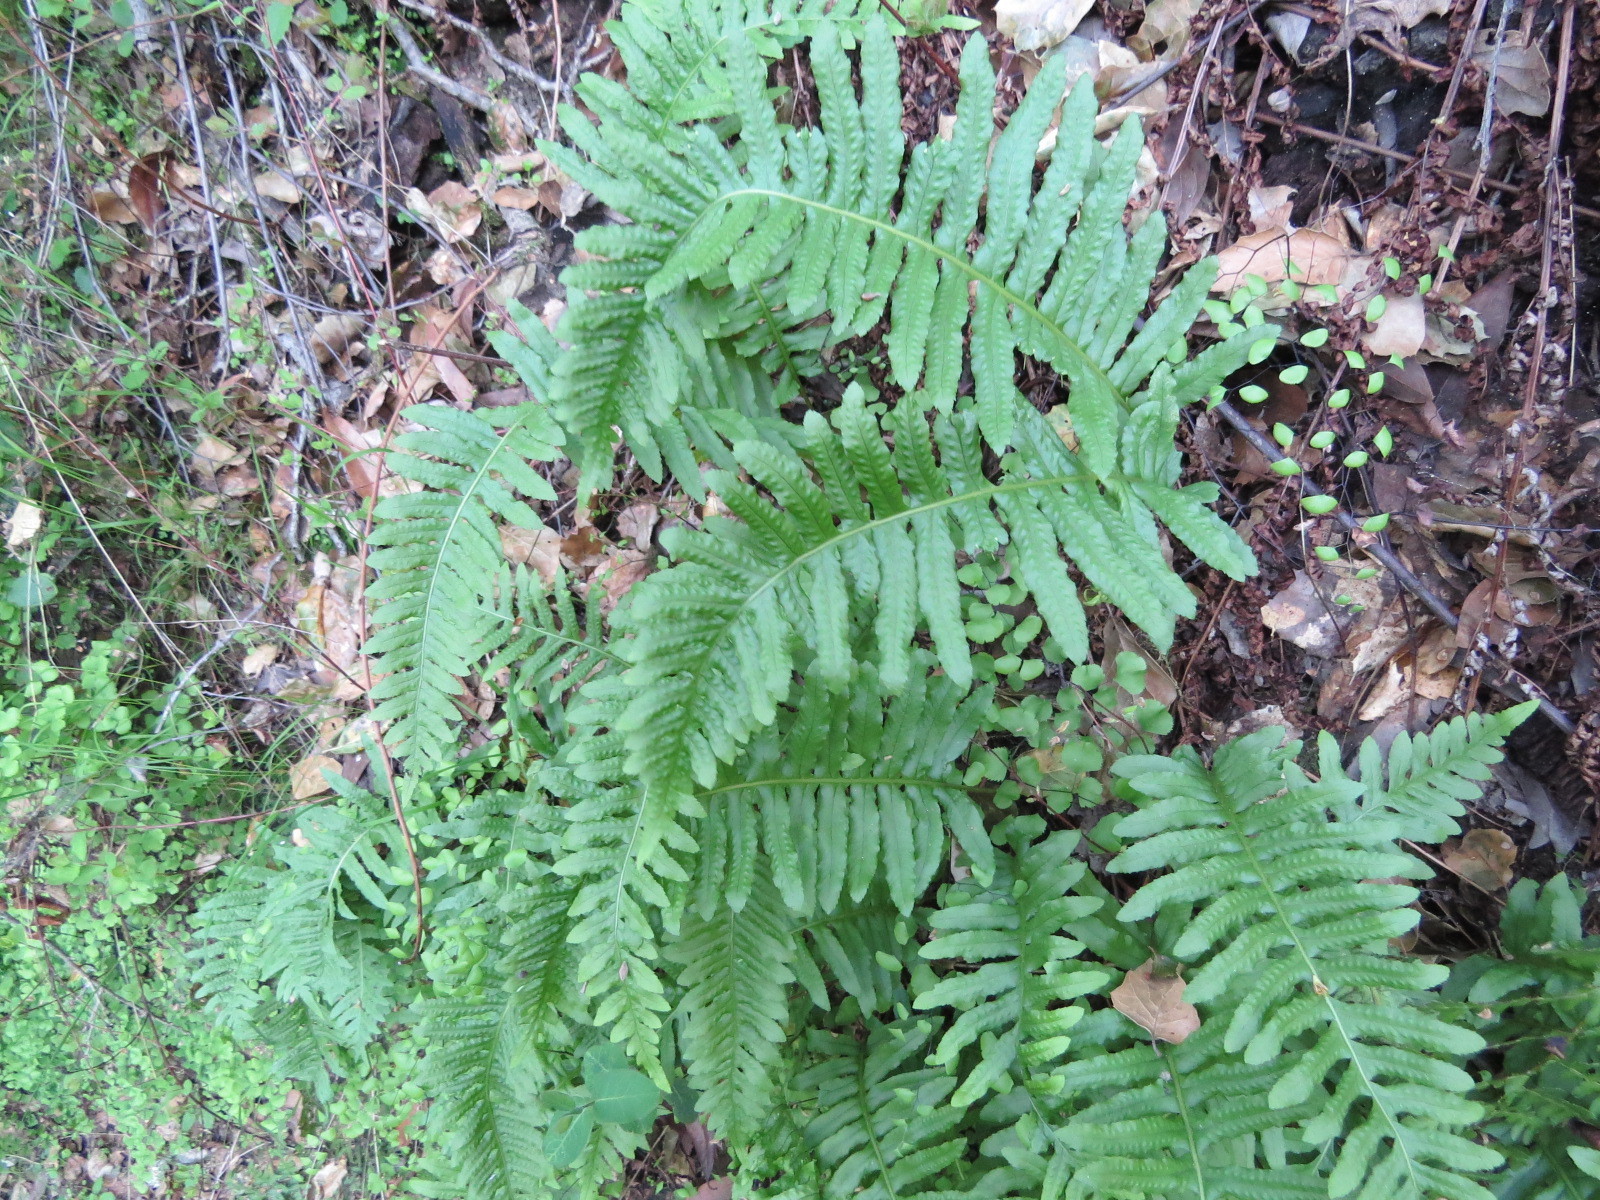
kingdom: Plantae
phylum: Tracheophyta
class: Polypodiopsida
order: Polypodiales
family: Polypodiaceae
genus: Polypodium
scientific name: Polypodium californicum
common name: California polypody
